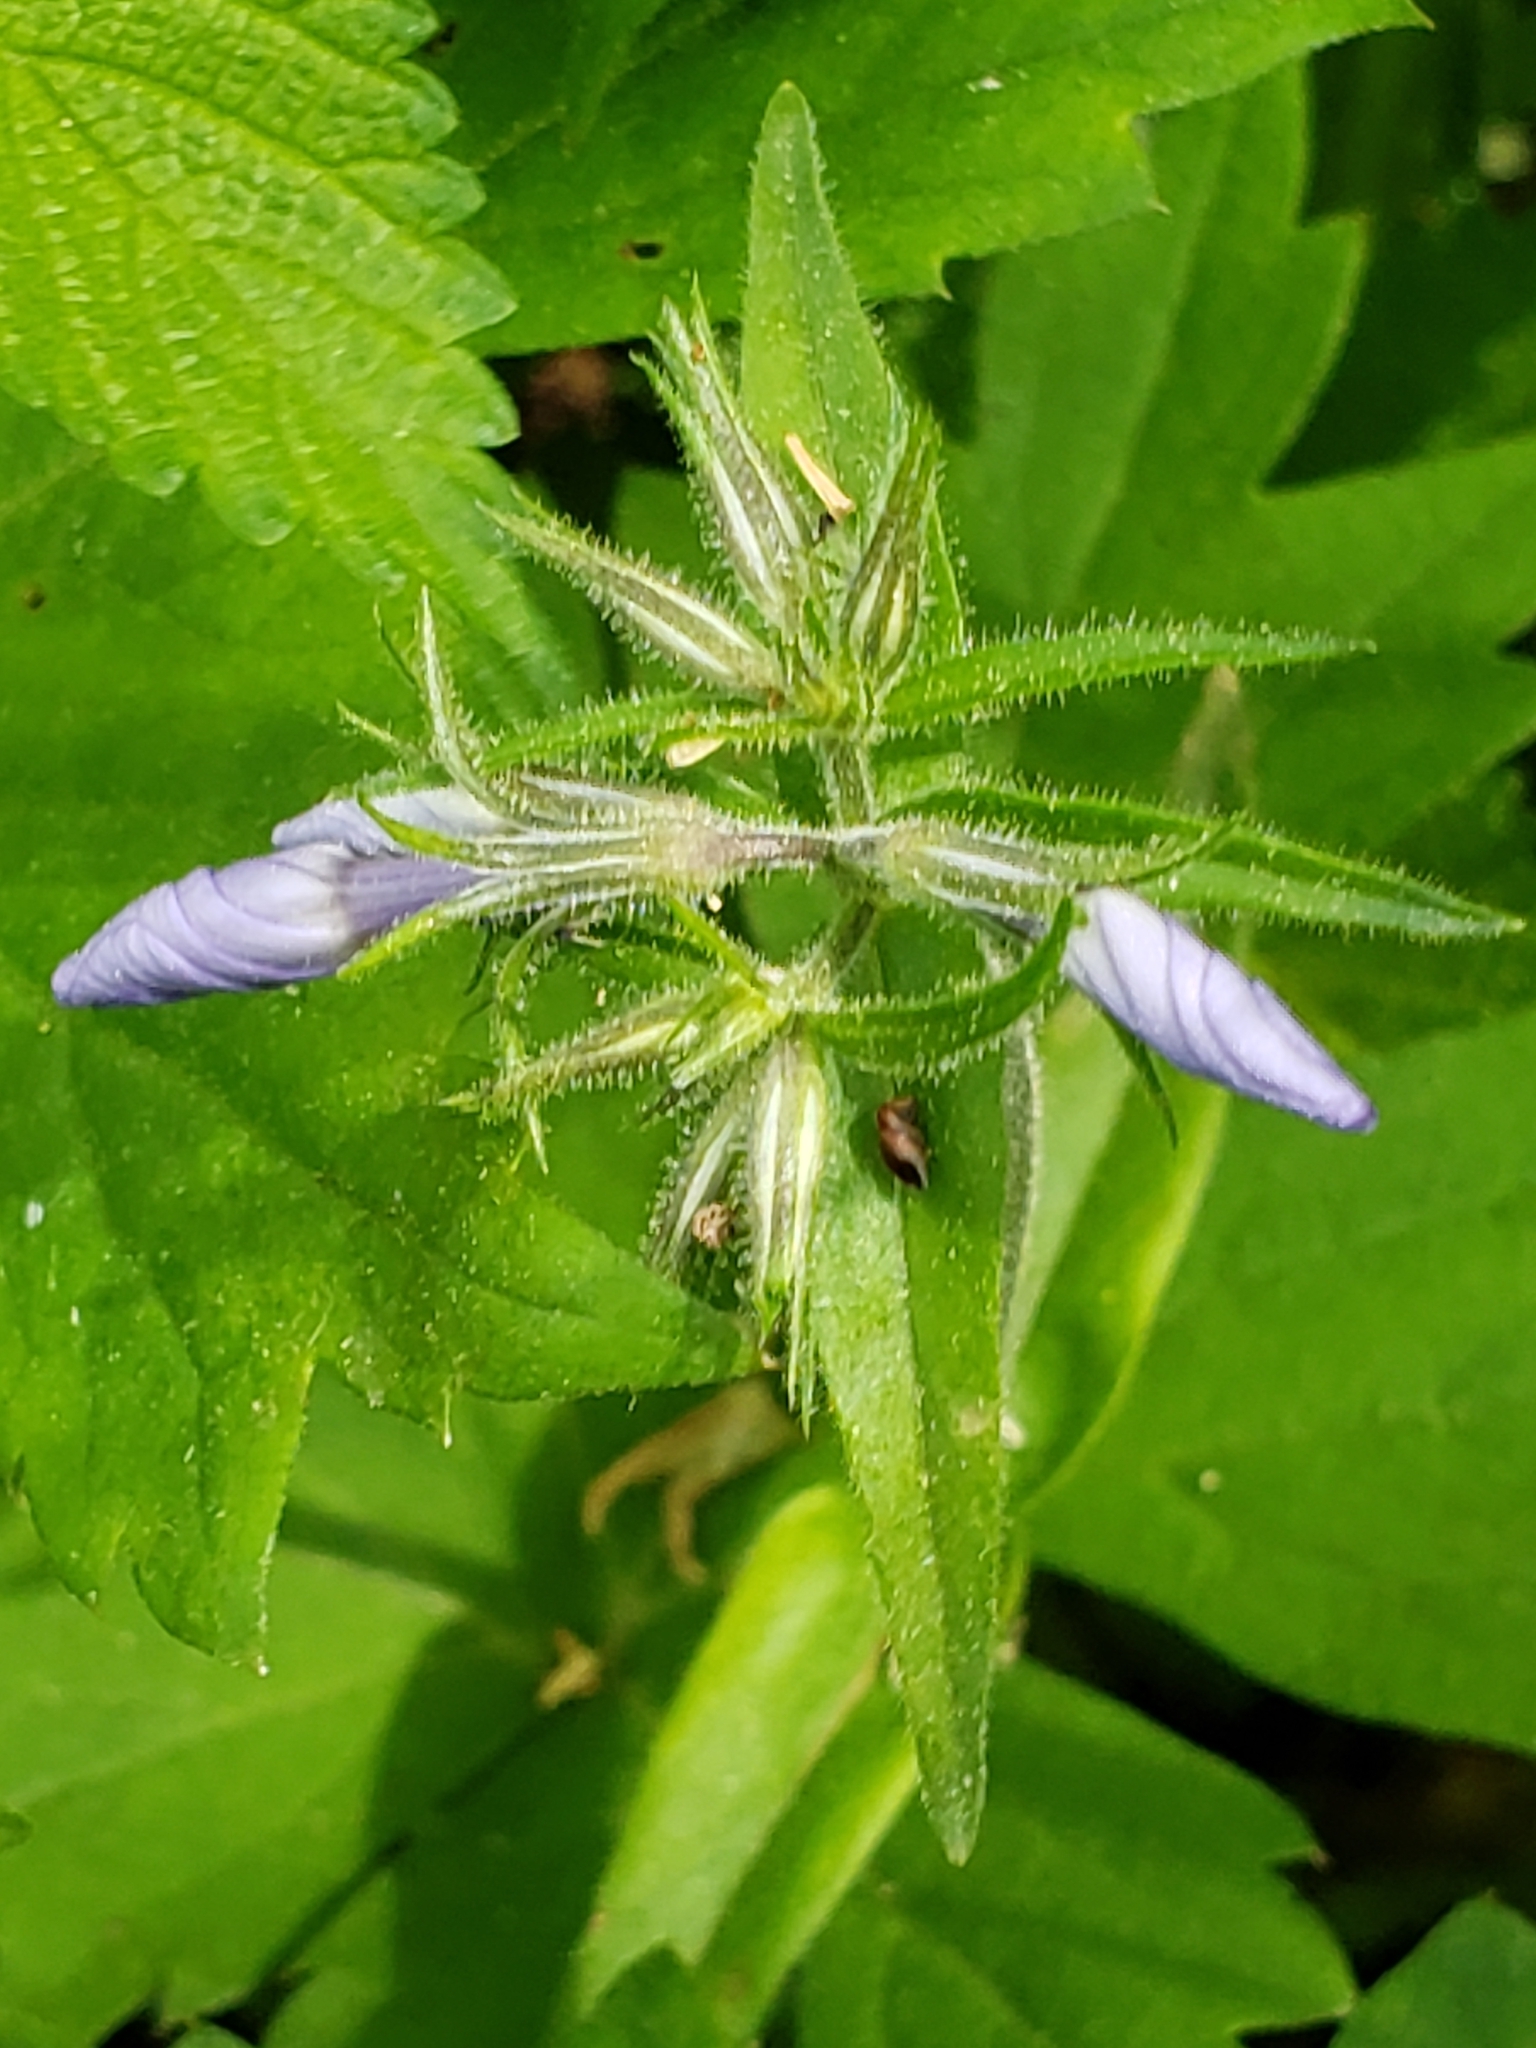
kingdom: Plantae
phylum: Tracheophyta
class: Magnoliopsida
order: Ericales
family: Polemoniaceae
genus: Phlox
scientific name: Phlox divaricata
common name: Blue phlox
